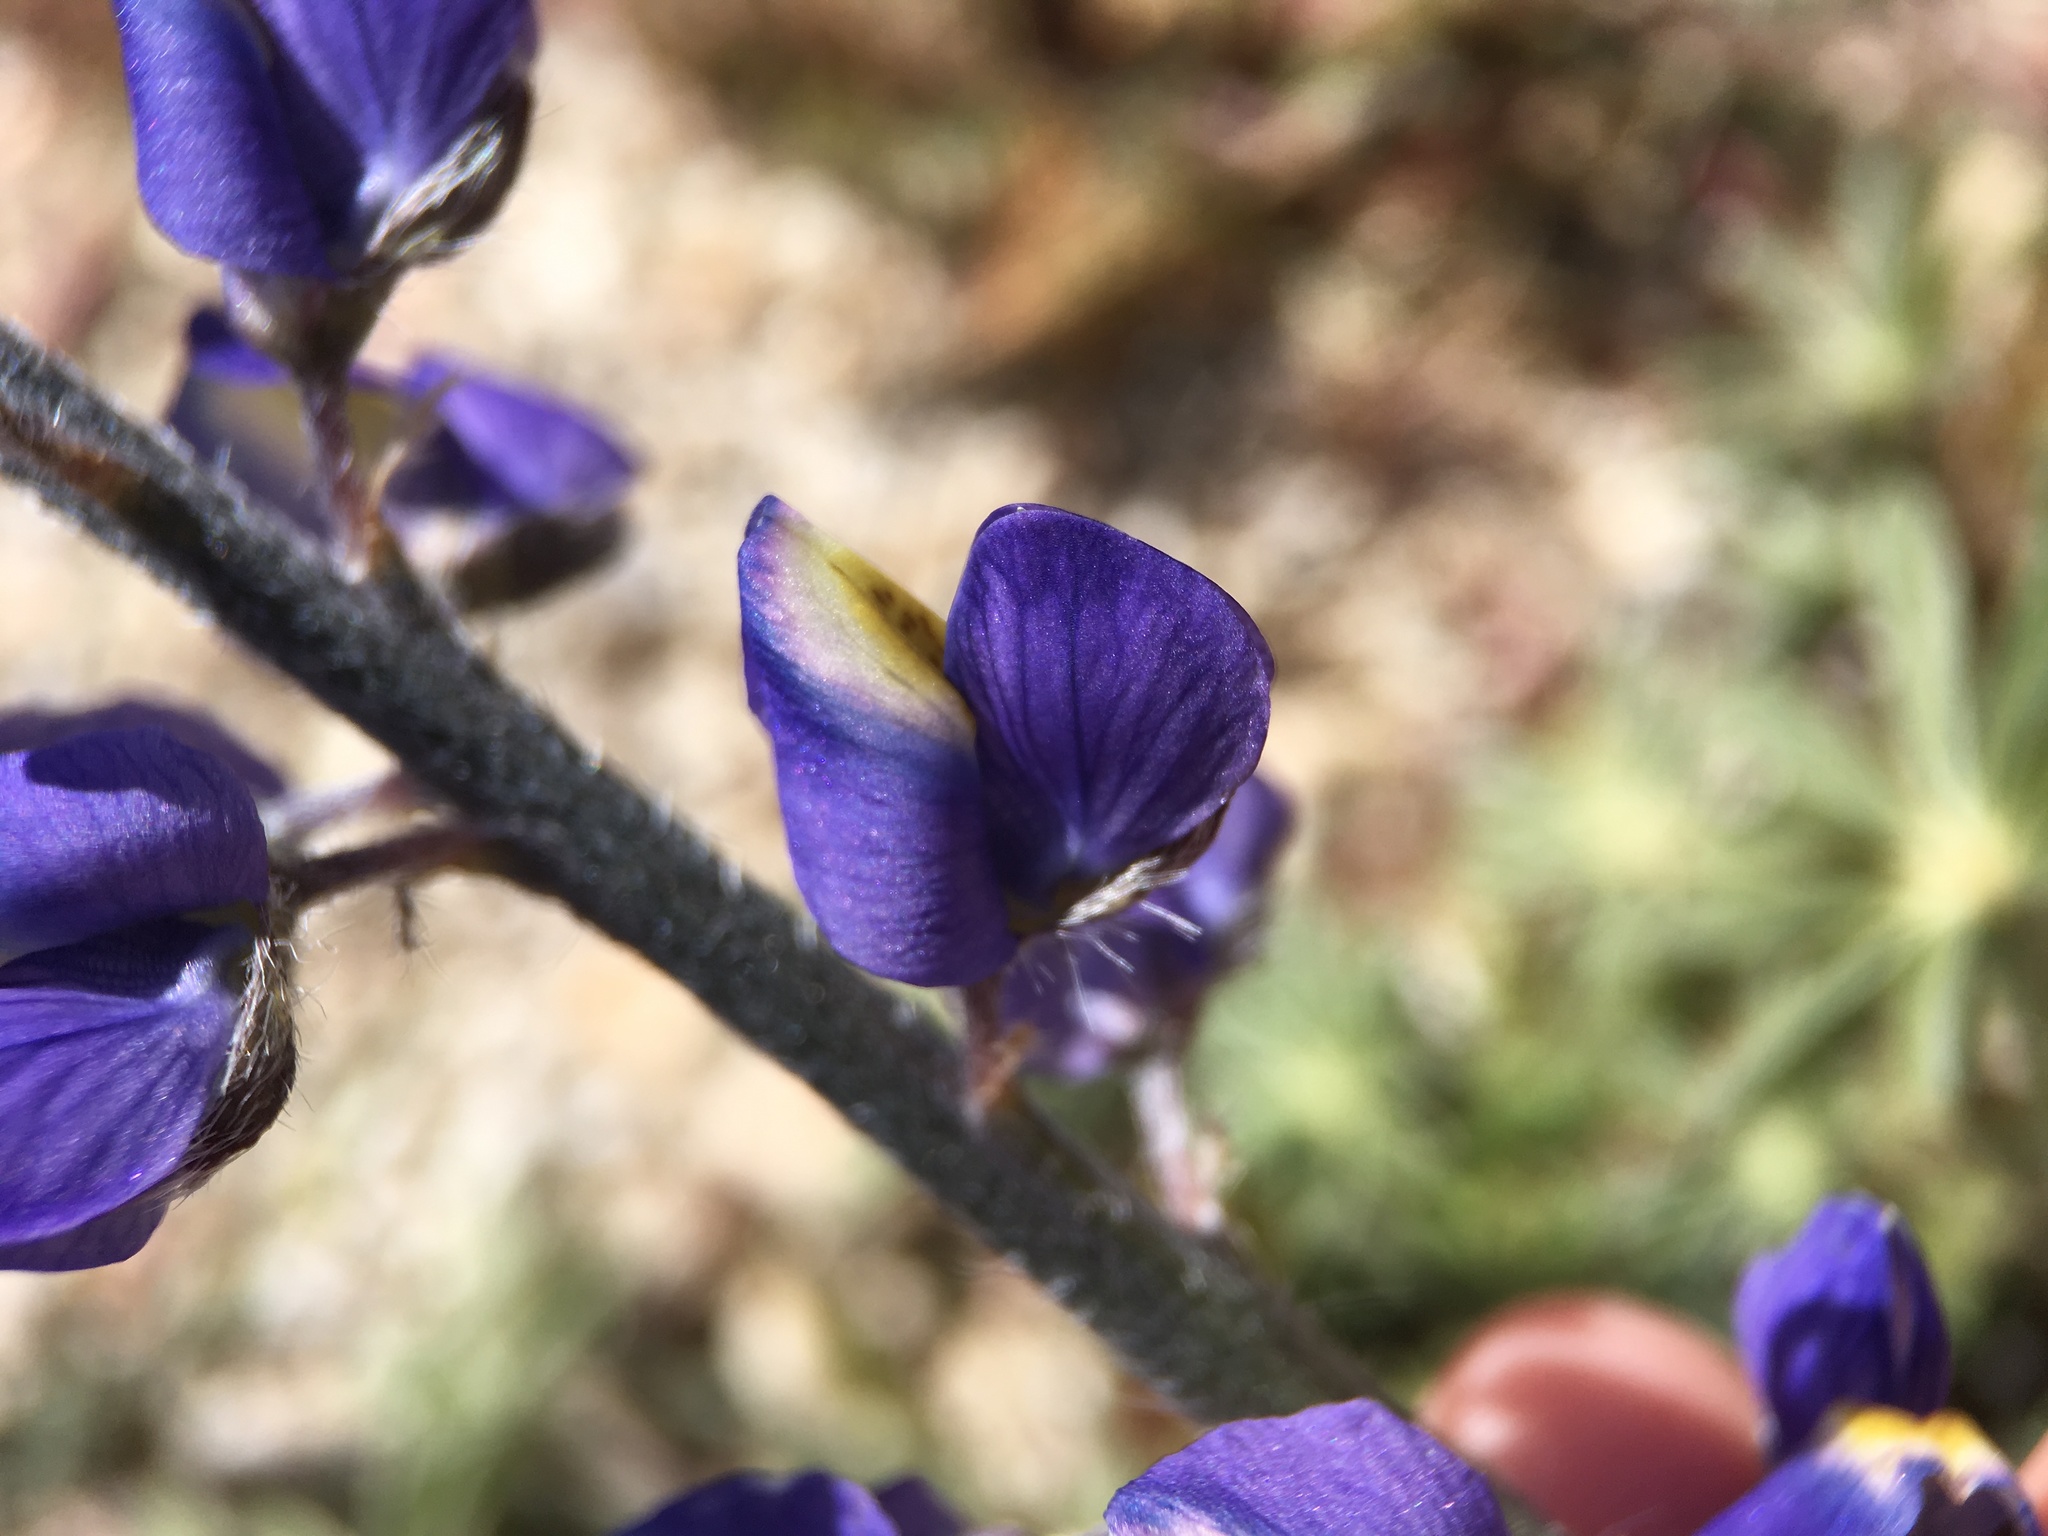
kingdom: Plantae
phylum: Tracheophyta
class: Magnoliopsida
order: Fabales
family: Fabaceae
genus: Lupinus
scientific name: Lupinus sparsiflorus
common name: Coulter's lupine
